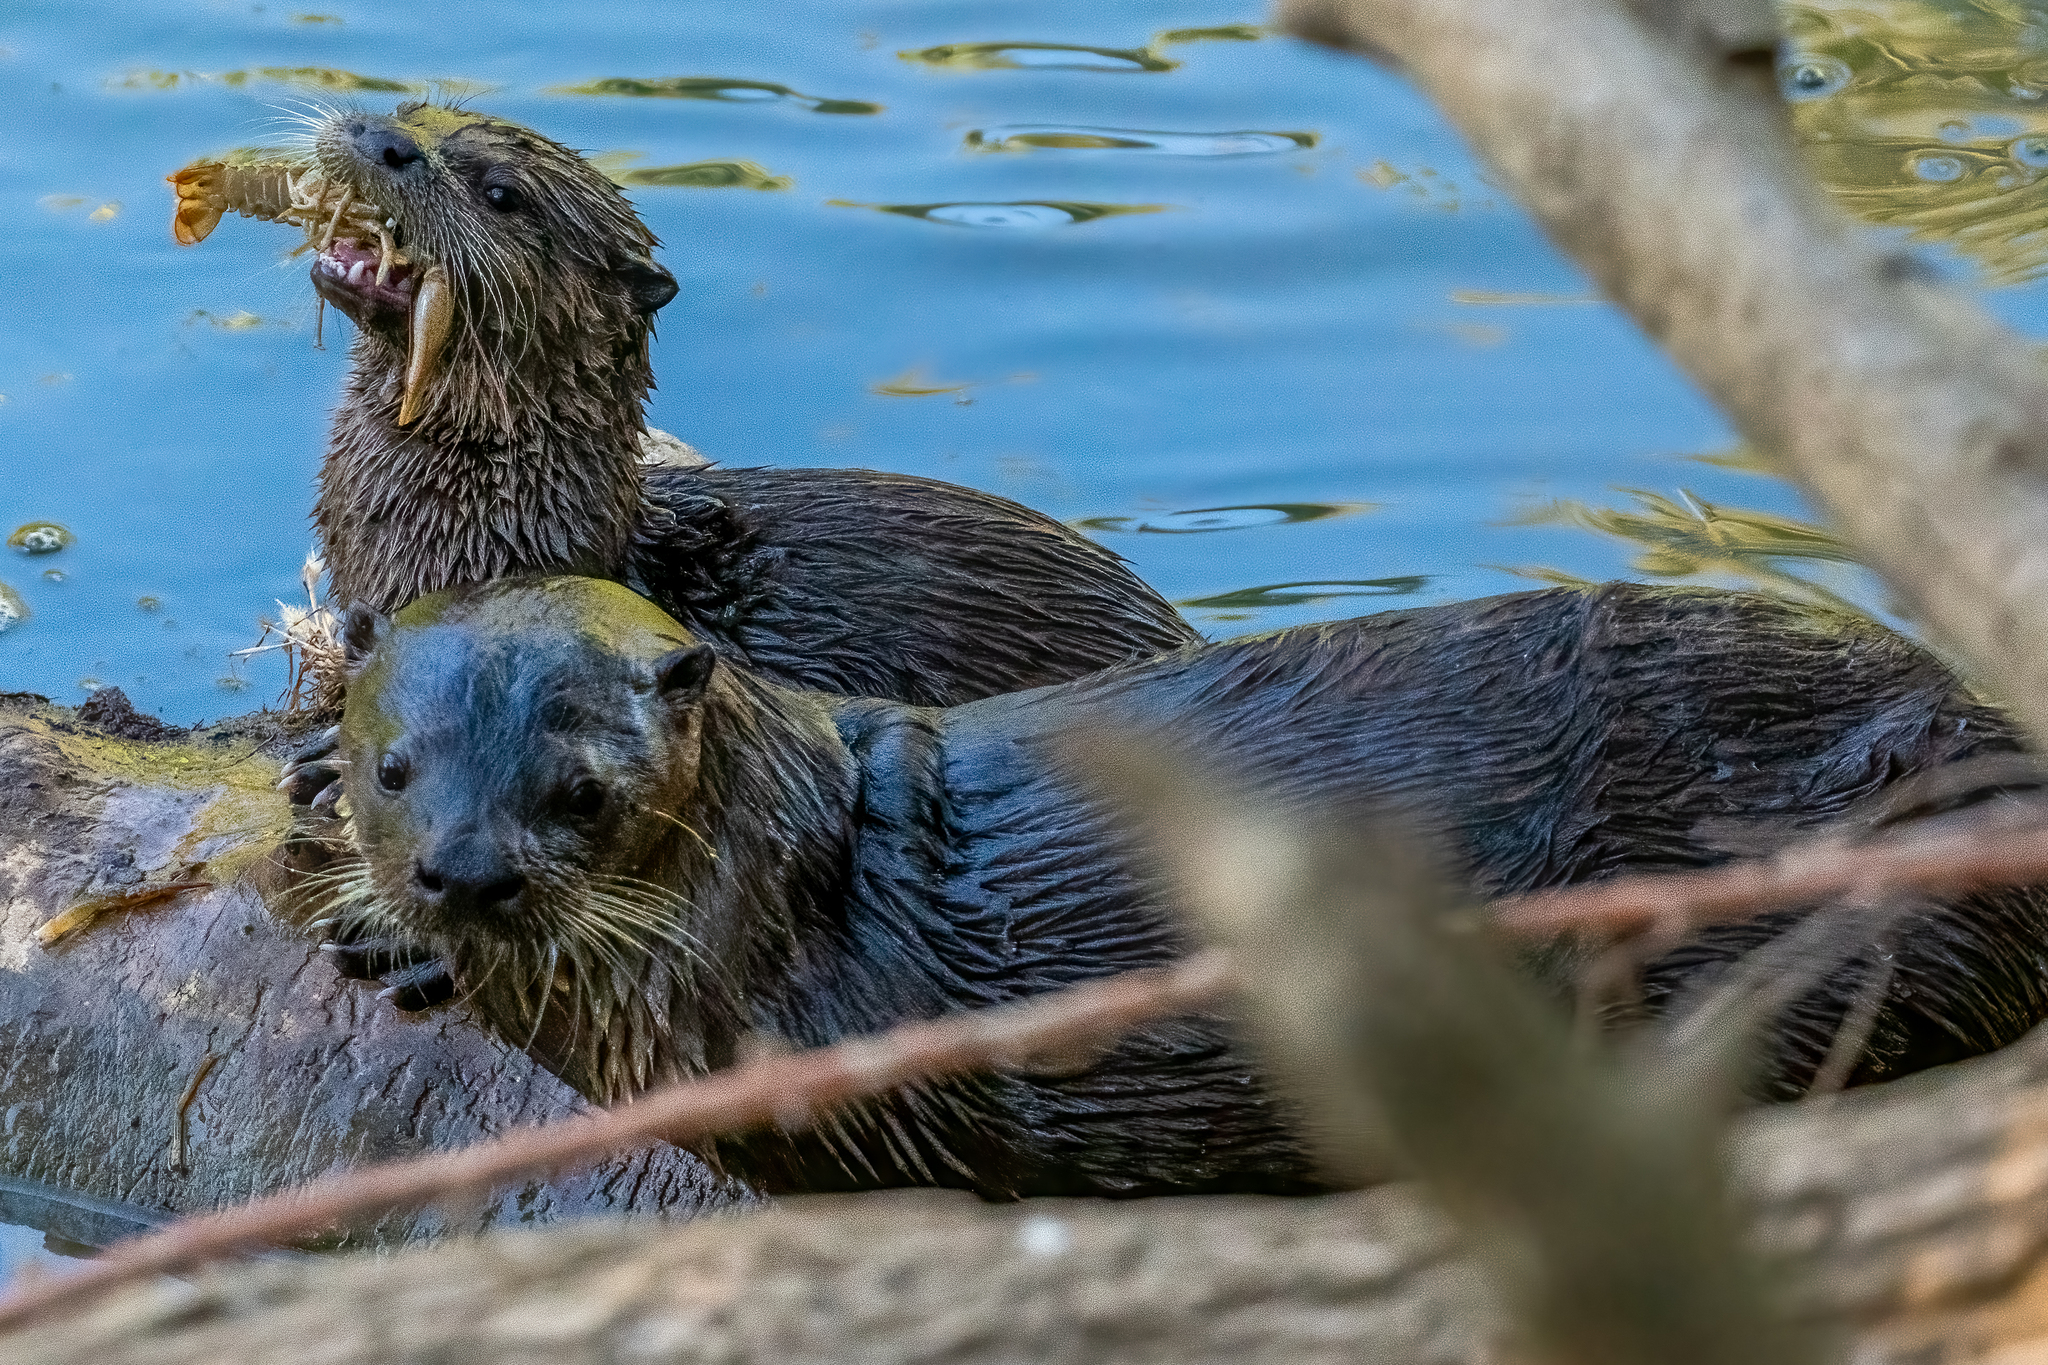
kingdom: Animalia
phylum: Chordata
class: Mammalia
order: Carnivora
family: Mustelidae
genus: Lontra
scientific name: Lontra canadensis
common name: North american river otter
